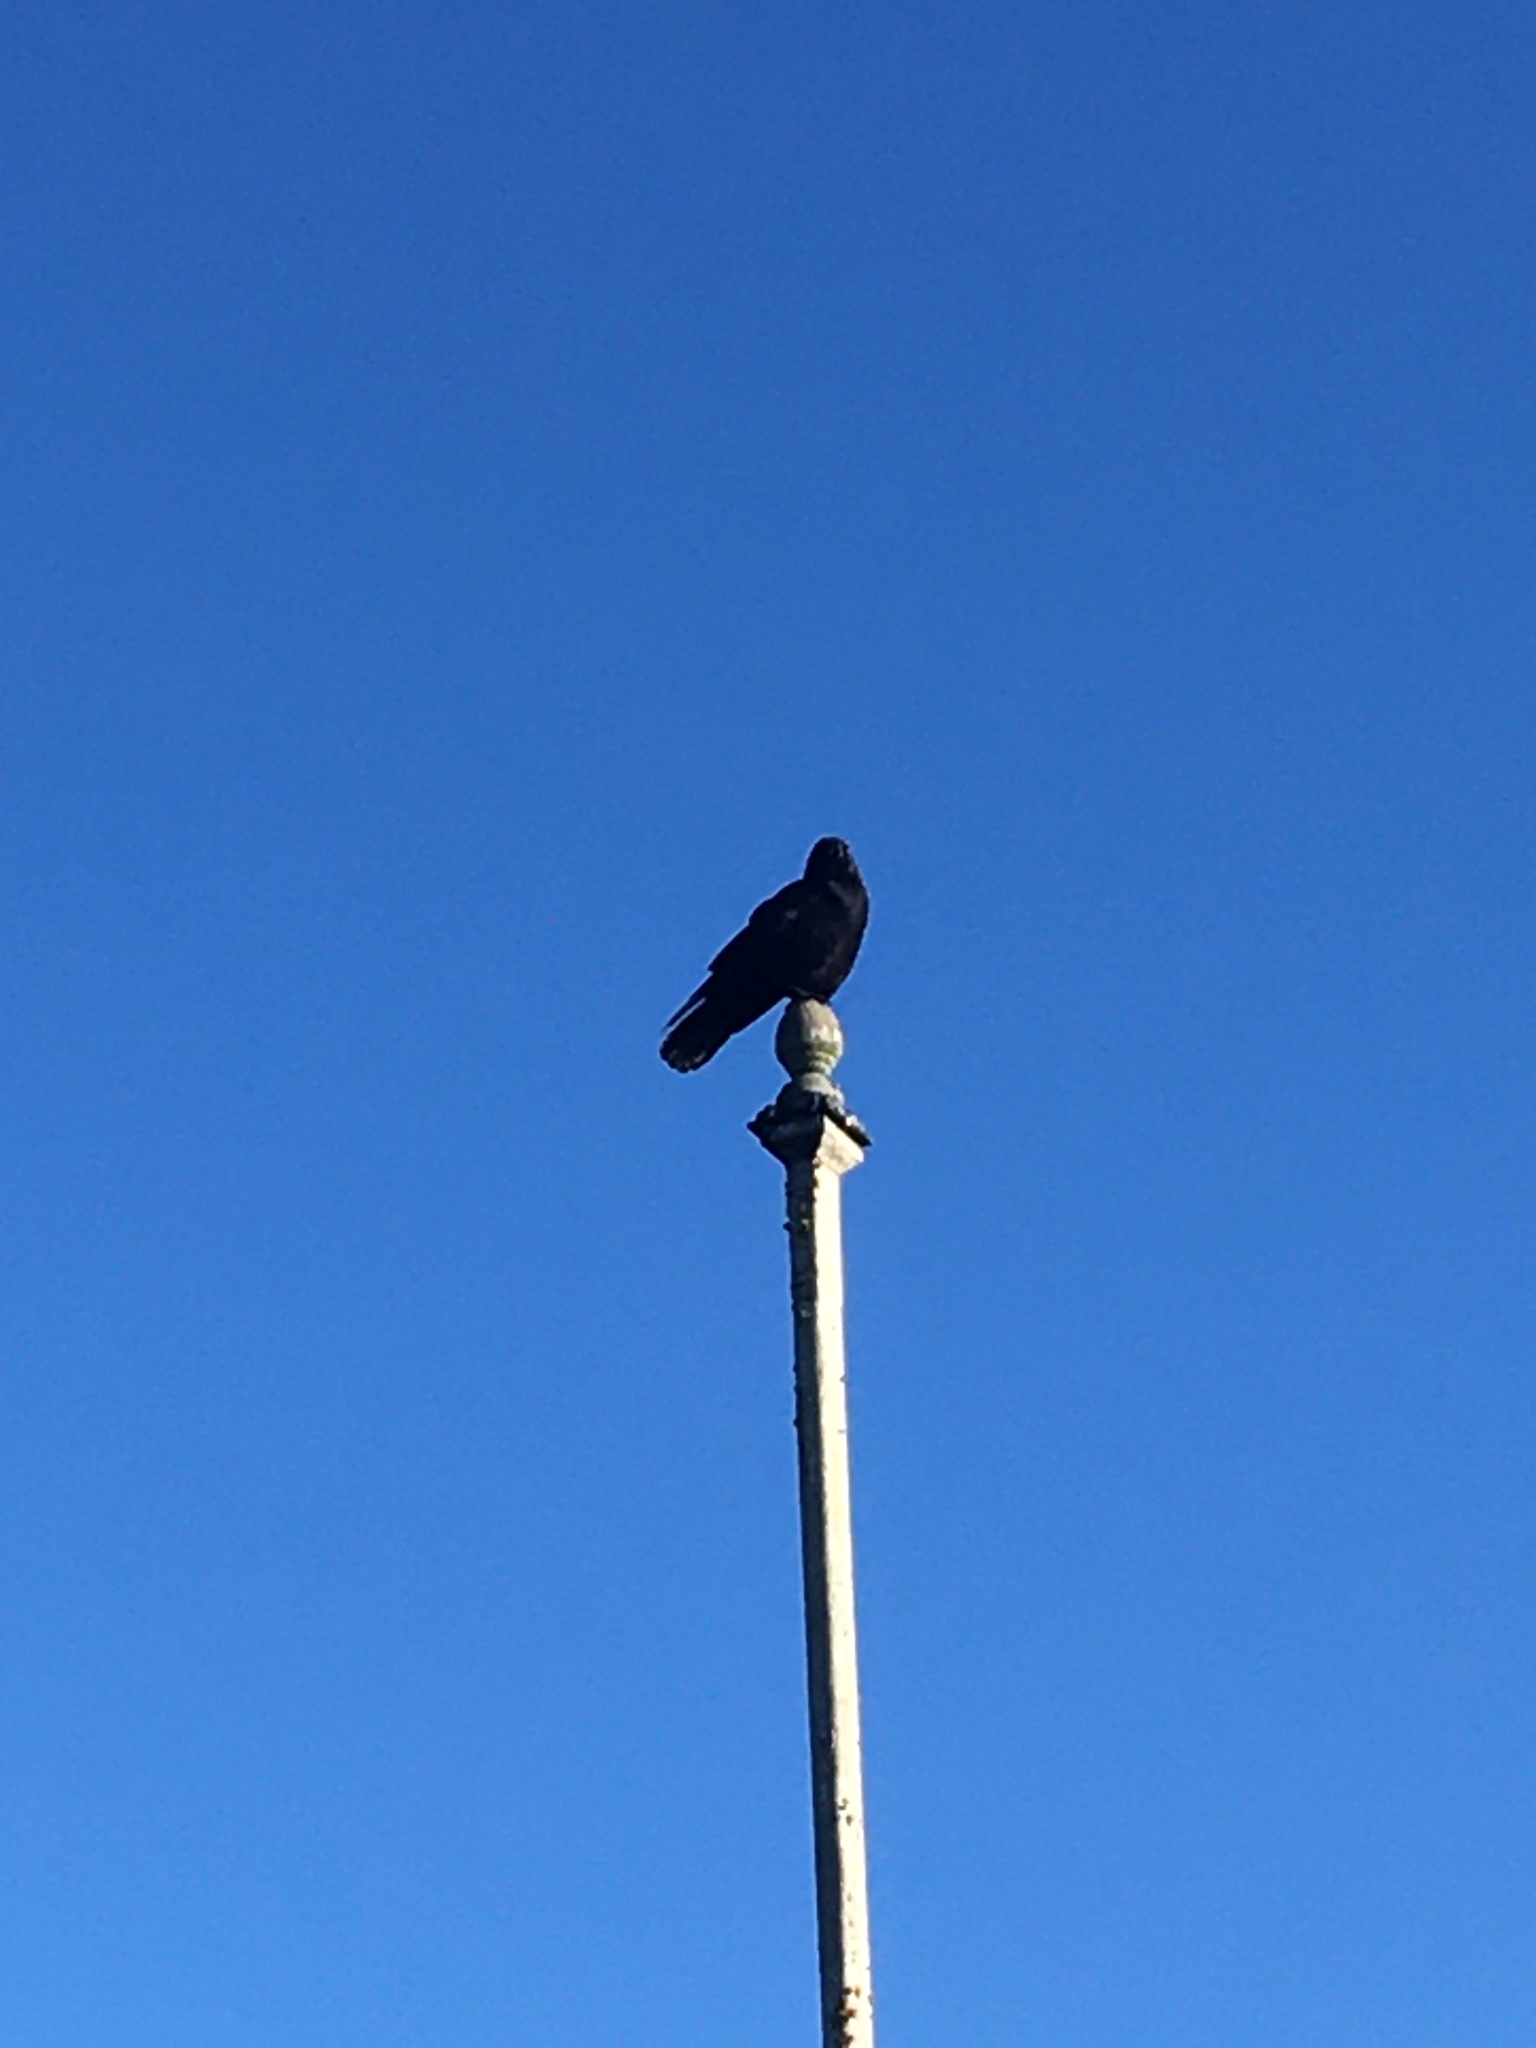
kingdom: Animalia
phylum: Chordata
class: Aves
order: Passeriformes
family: Corvidae
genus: Corvus
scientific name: Corvus brachyrhynchos
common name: American crow
